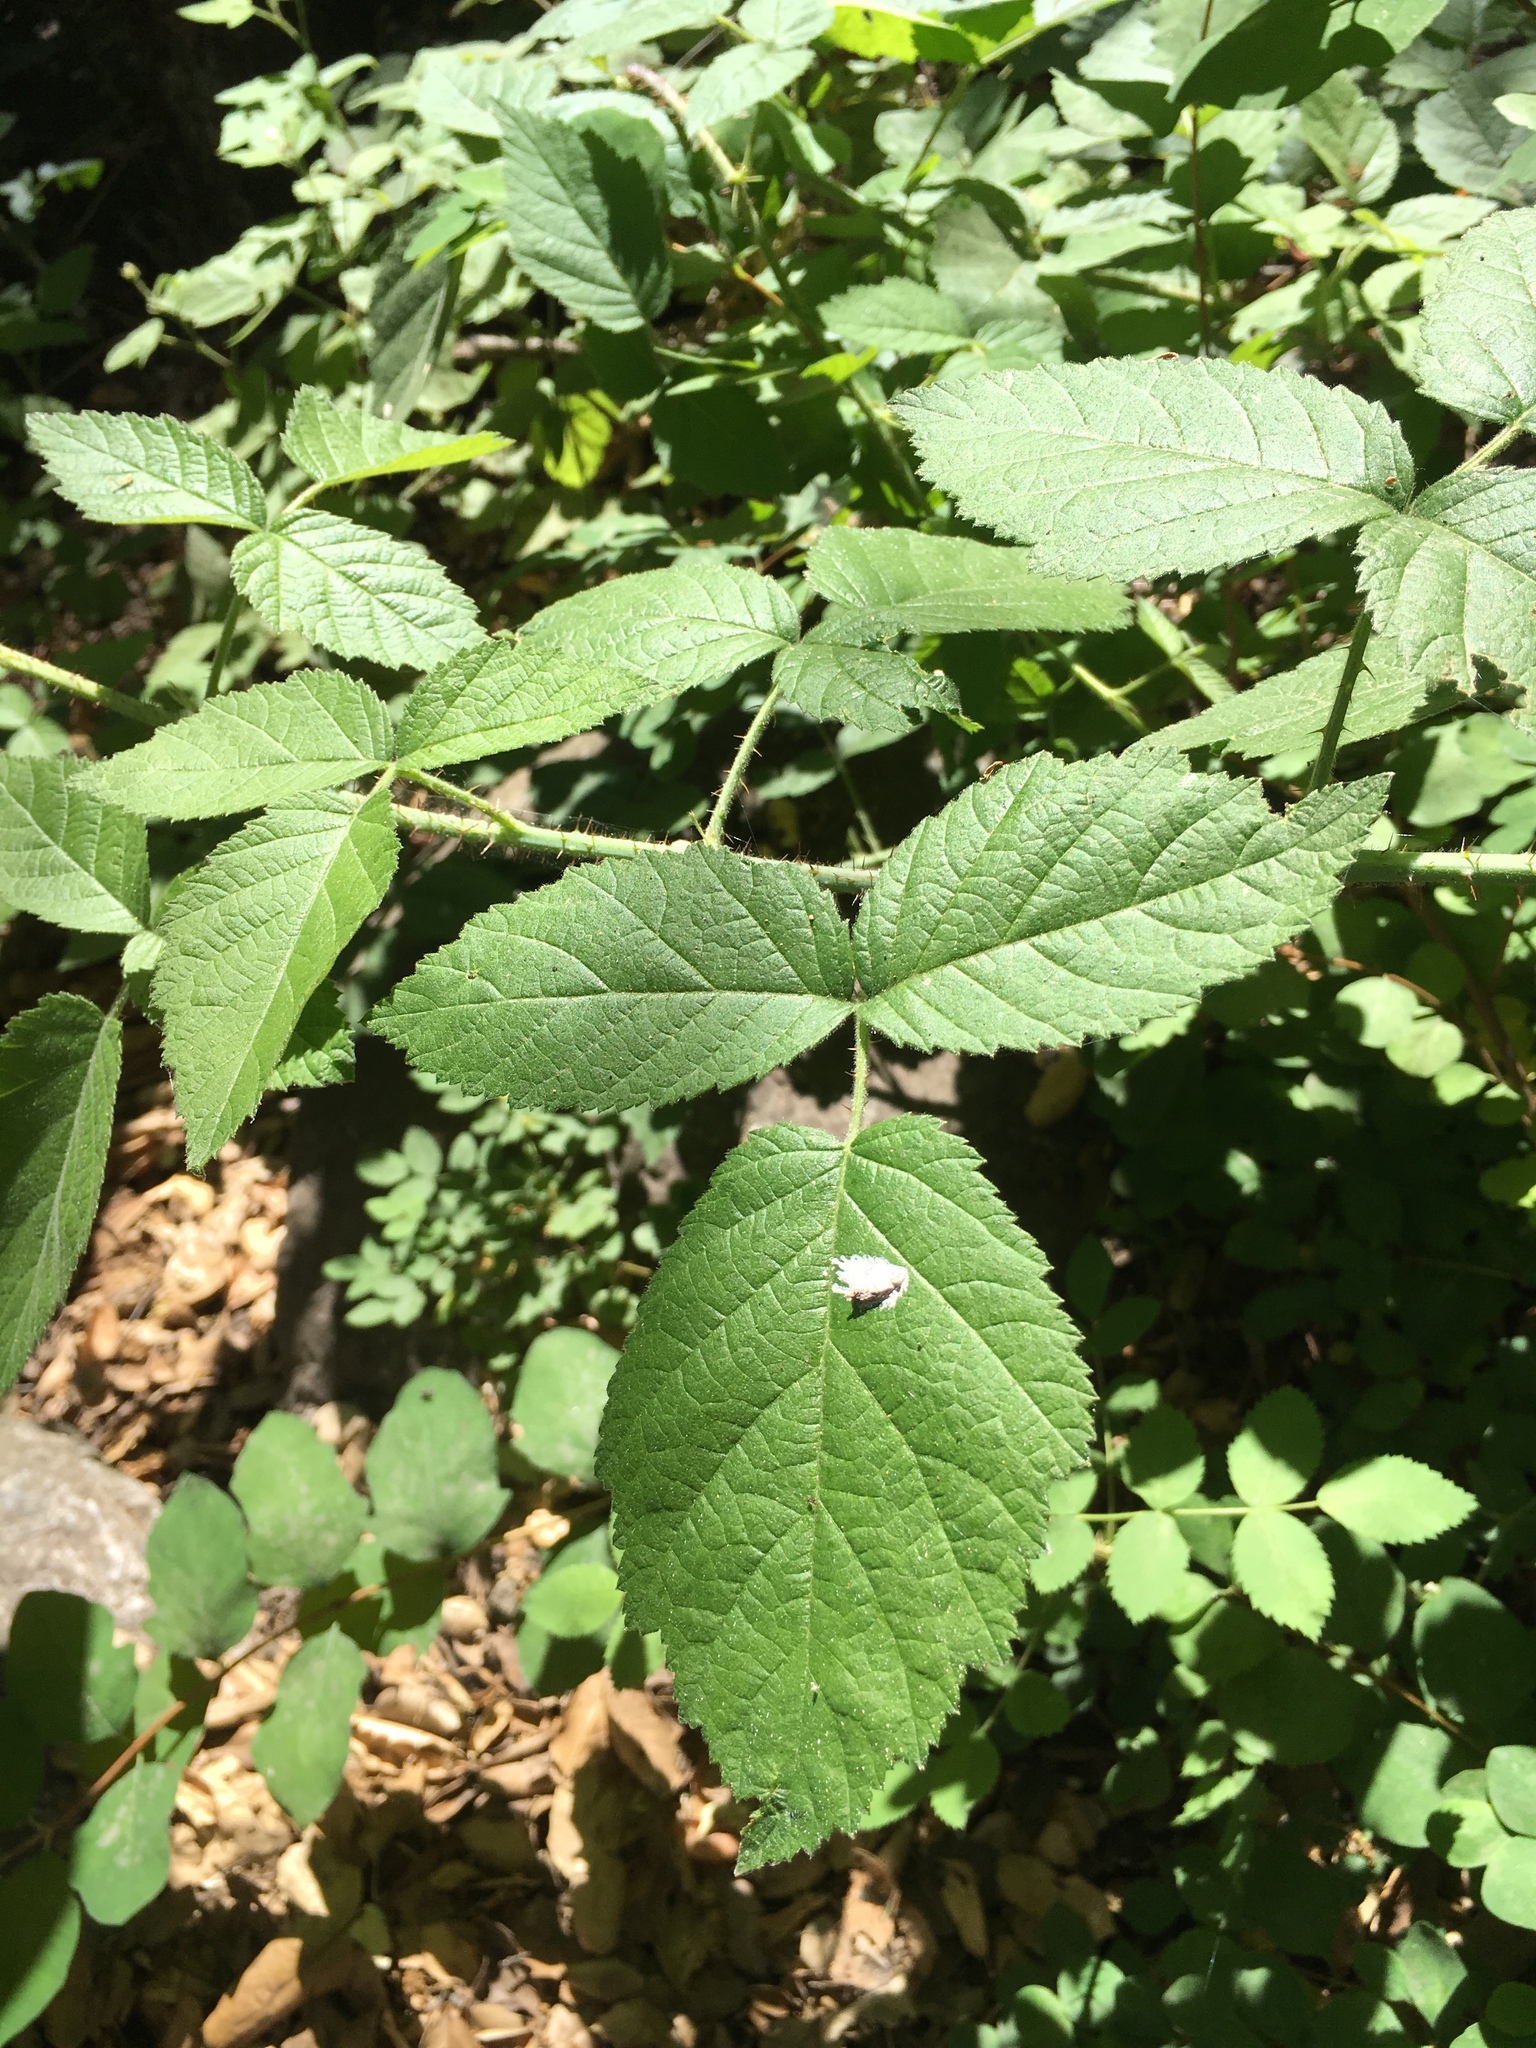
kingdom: Plantae
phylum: Tracheophyta
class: Magnoliopsida
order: Rosales
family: Rosaceae
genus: Rubus
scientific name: Rubus ursinus
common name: Pacific blackberry
